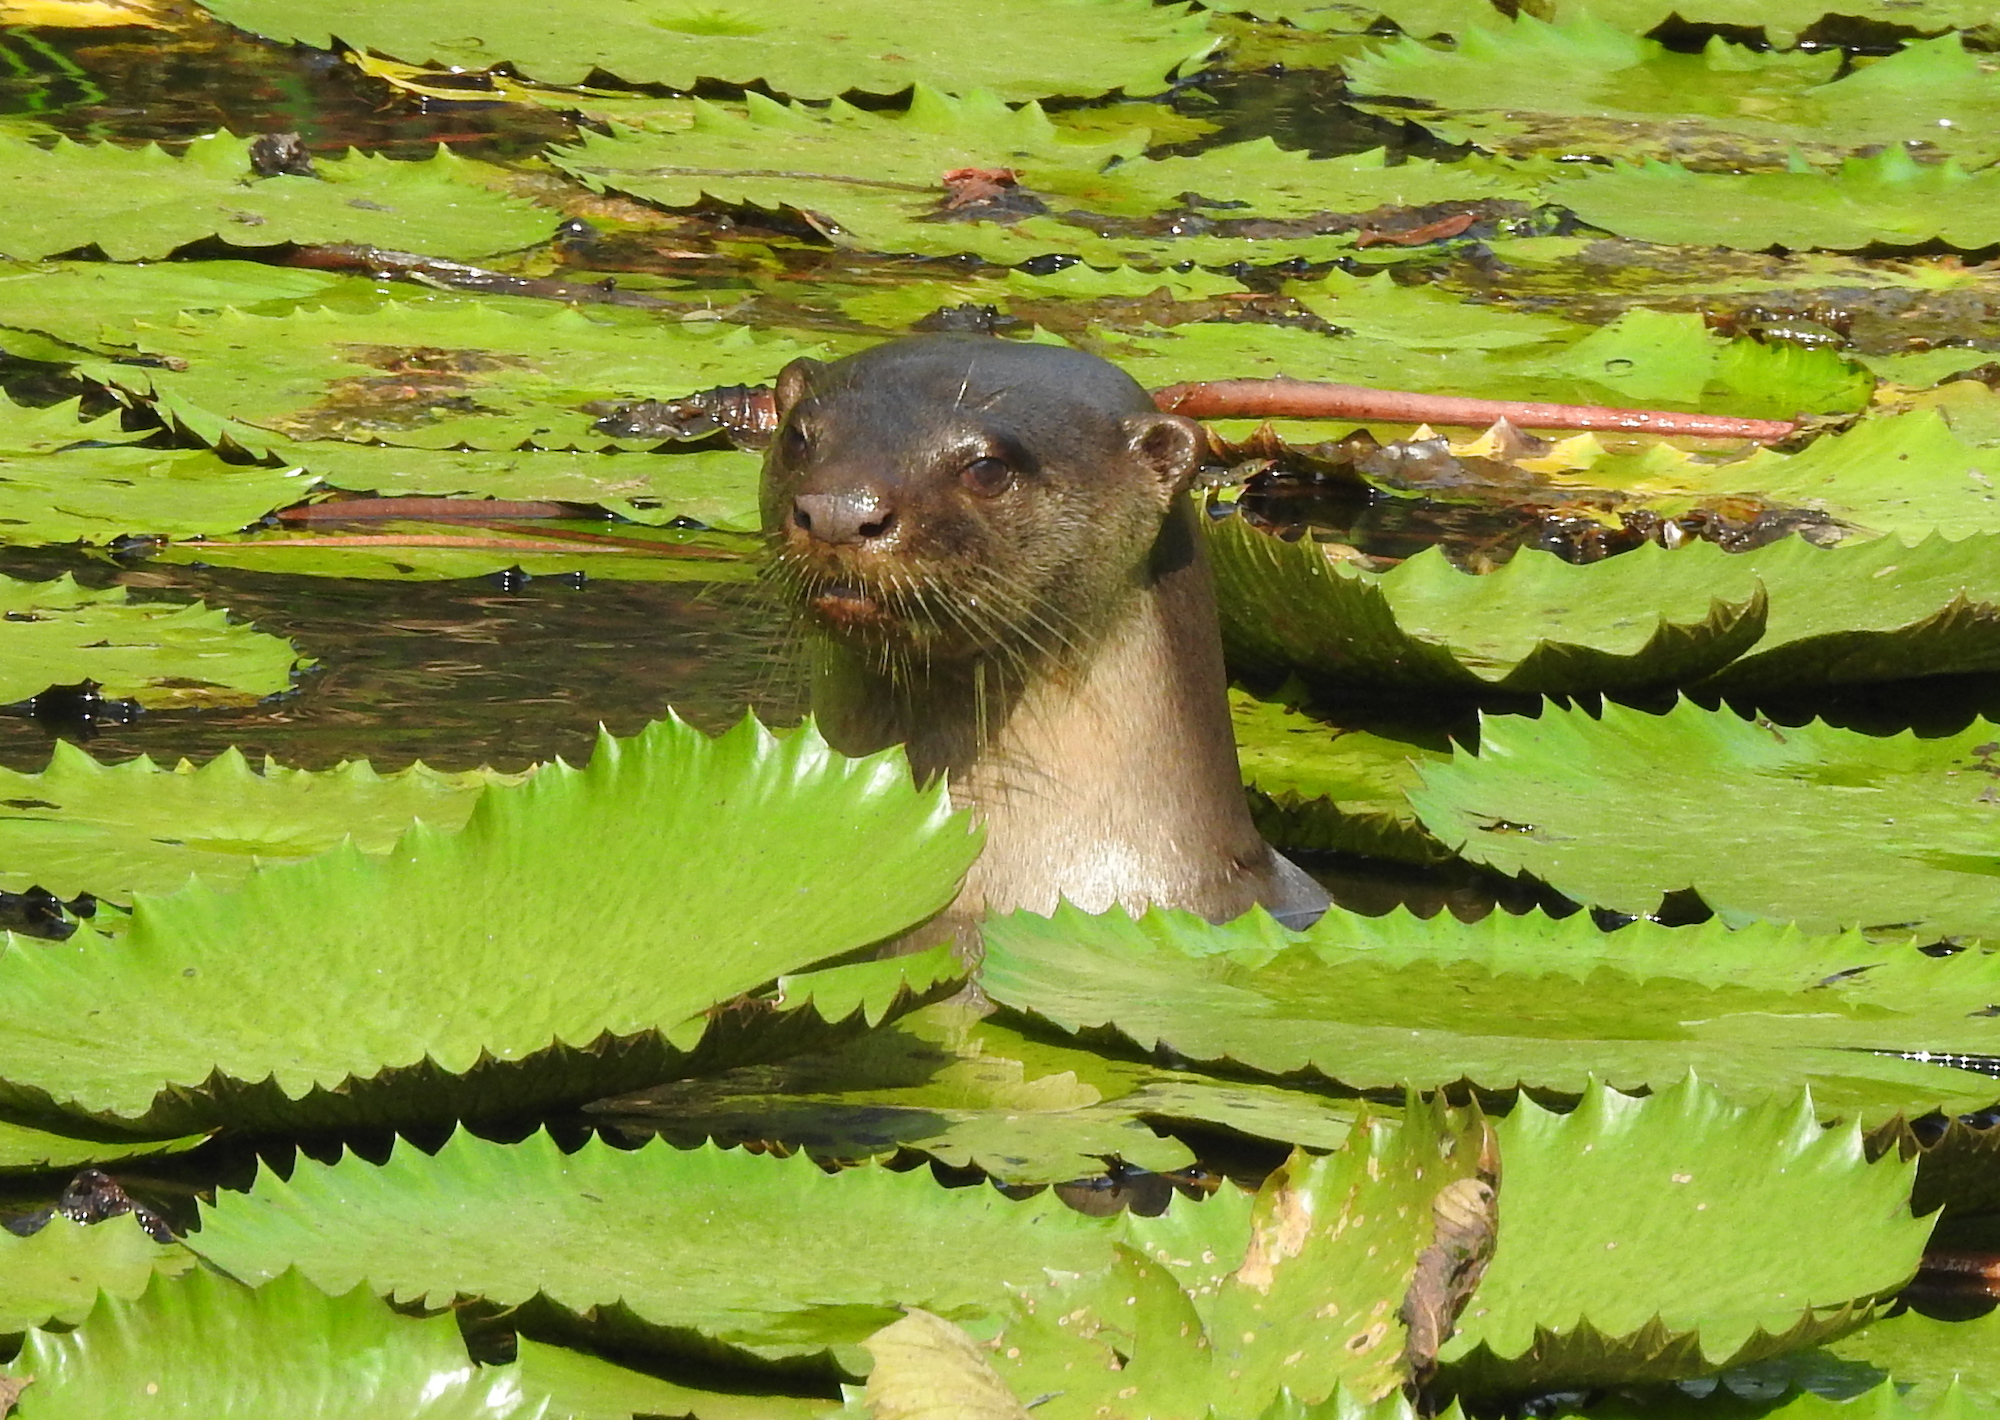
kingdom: Animalia
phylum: Chordata
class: Mammalia
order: Carnivora
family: Mustelidae
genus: Lutrogale
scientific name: Lutrogale perspicillata
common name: Smooth-coated otter
